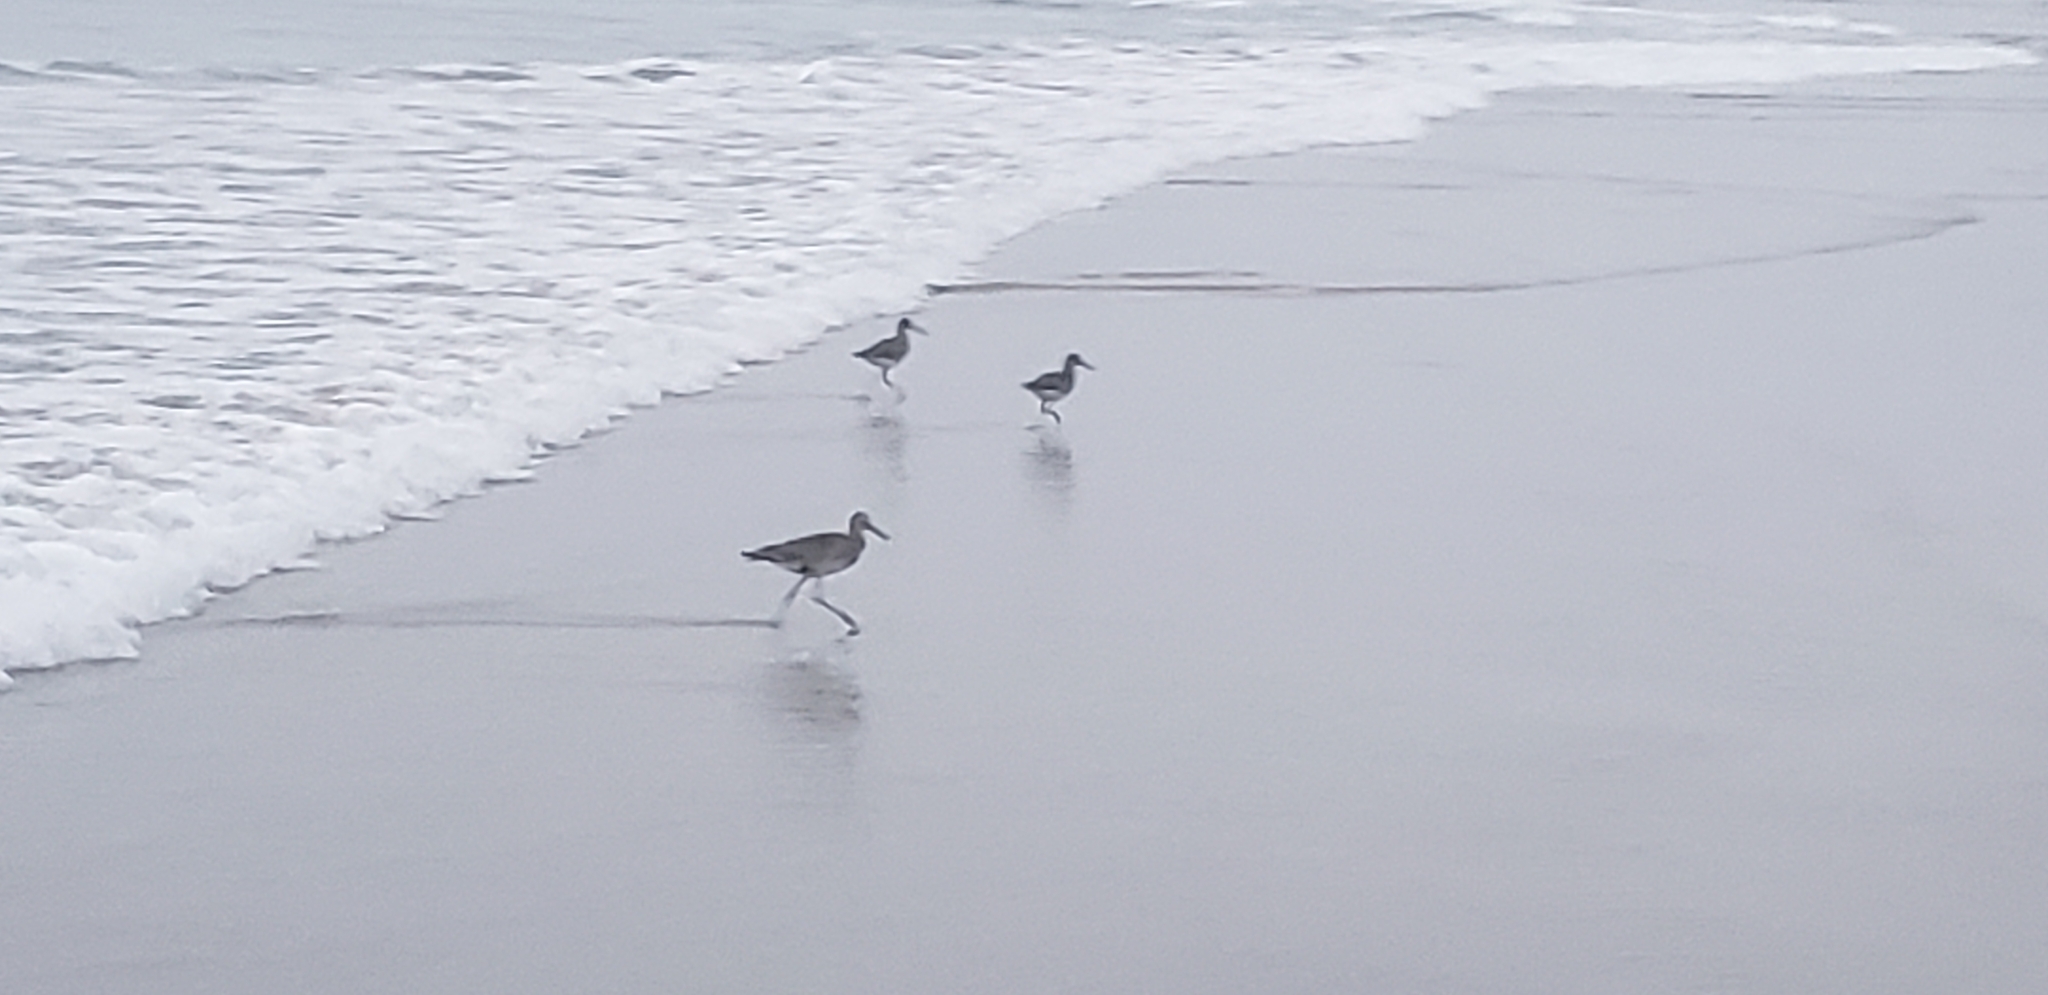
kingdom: Animalia
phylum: Chordata
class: Aves
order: Charadriiformes
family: Scolopacidae
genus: Tringa
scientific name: Tringa semipalmata
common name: Willet
